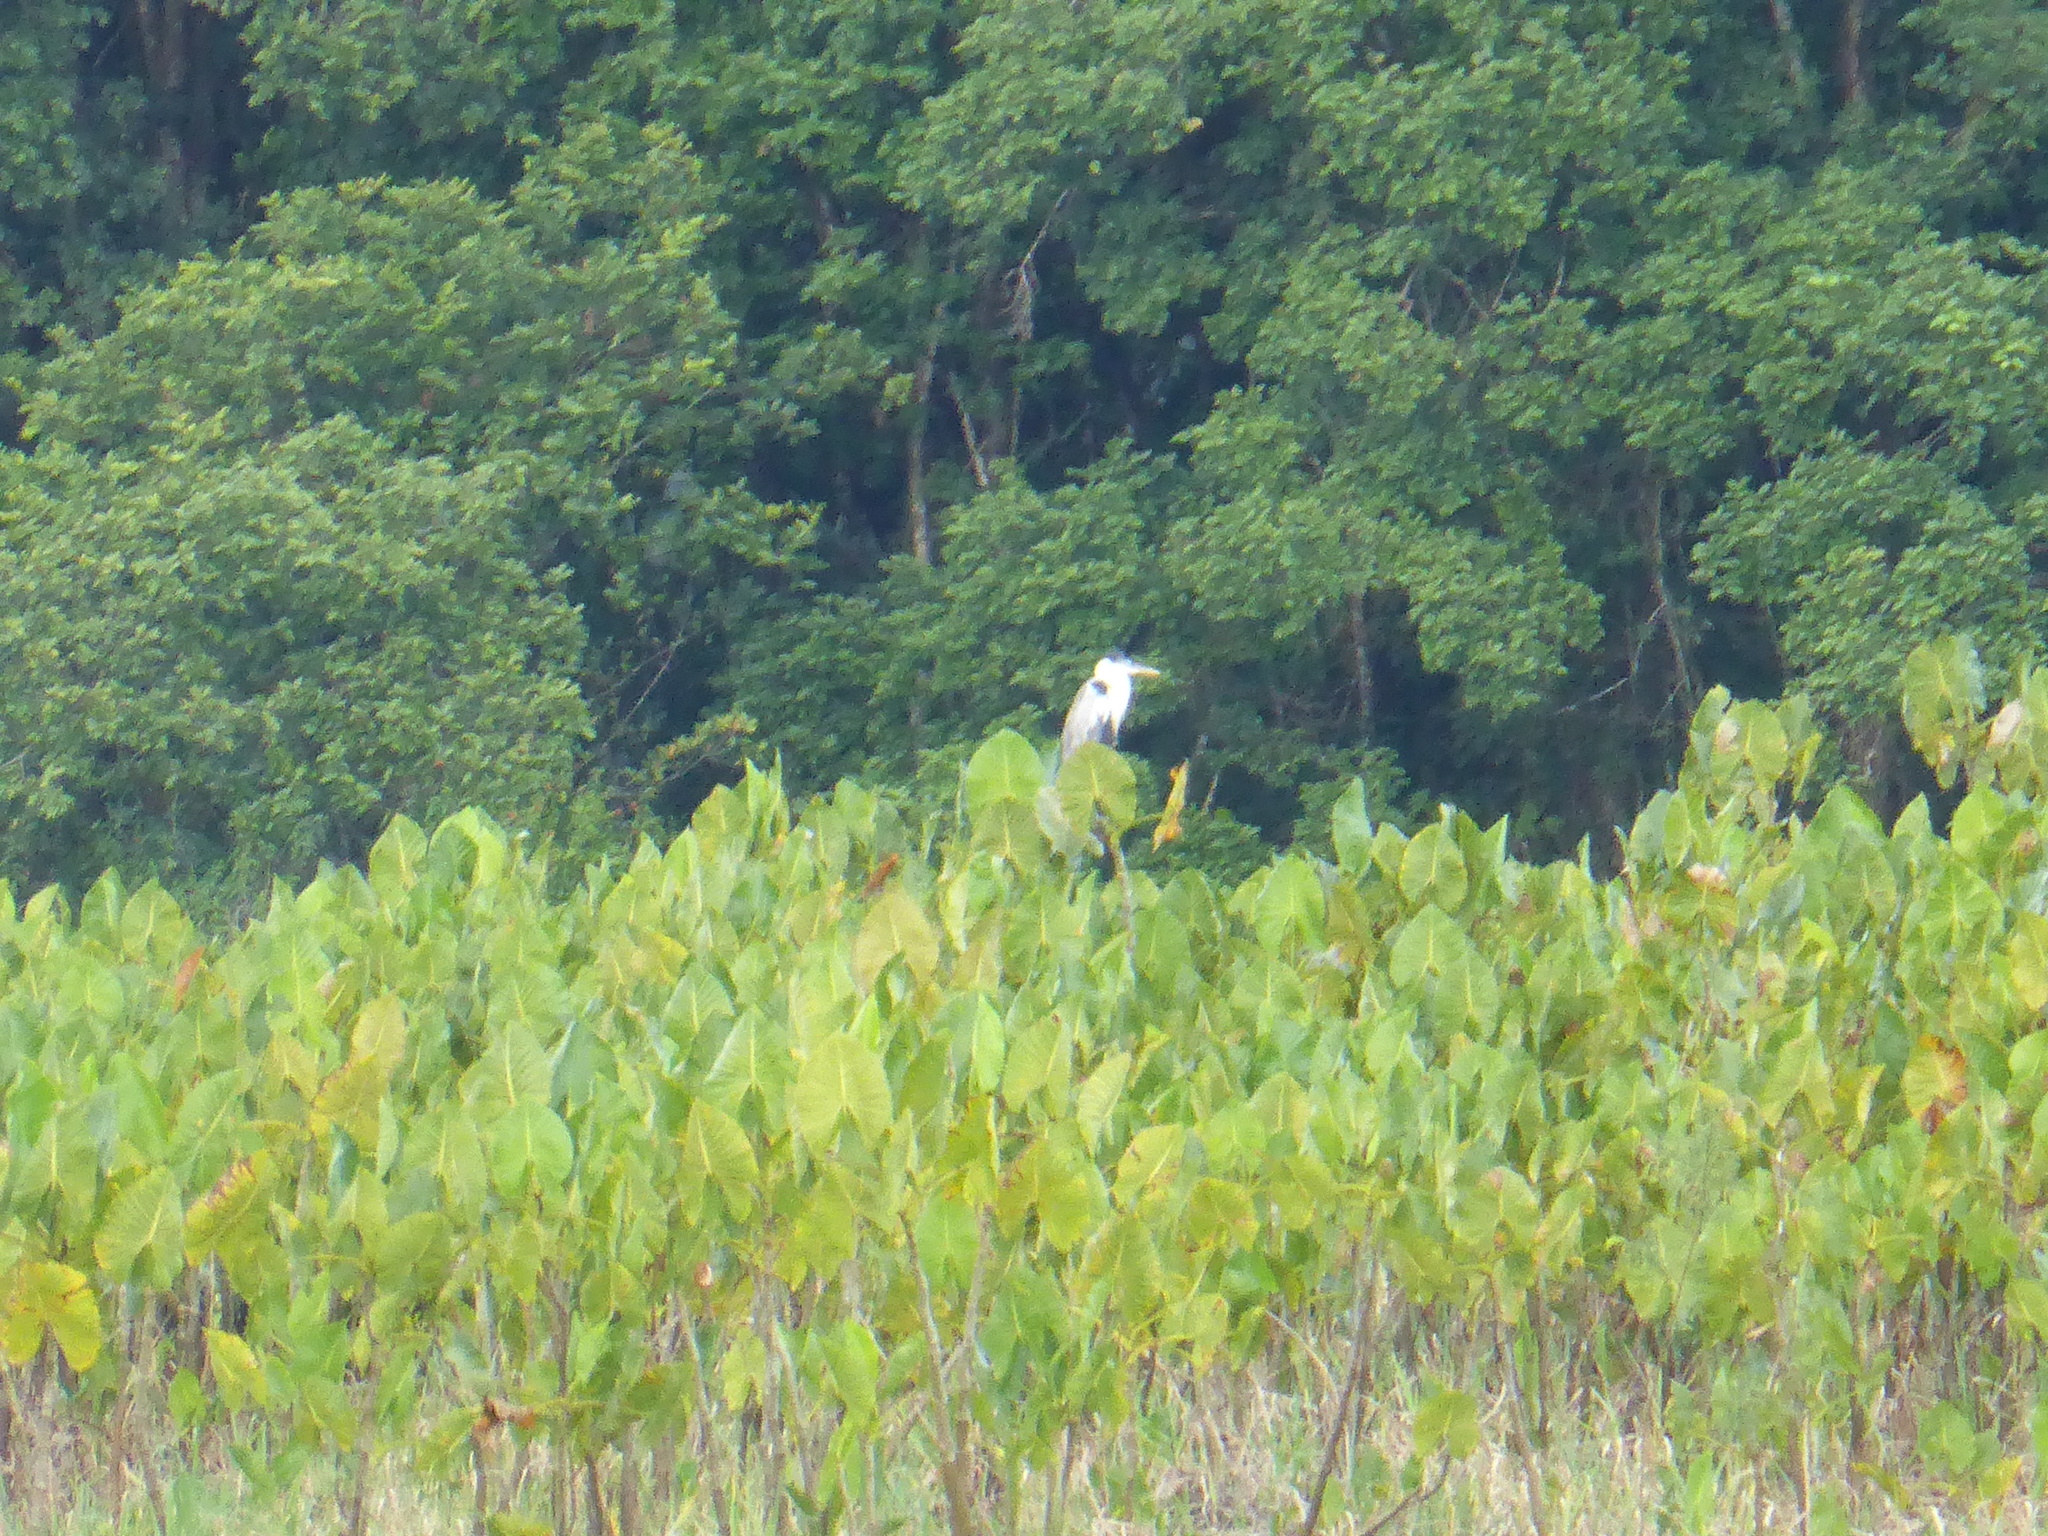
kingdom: Animalia
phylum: Chordata
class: Aves
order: Pelecaniformes
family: Ardeidae
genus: Ardea
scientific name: Ardea cocoi
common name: Cocoi heron
